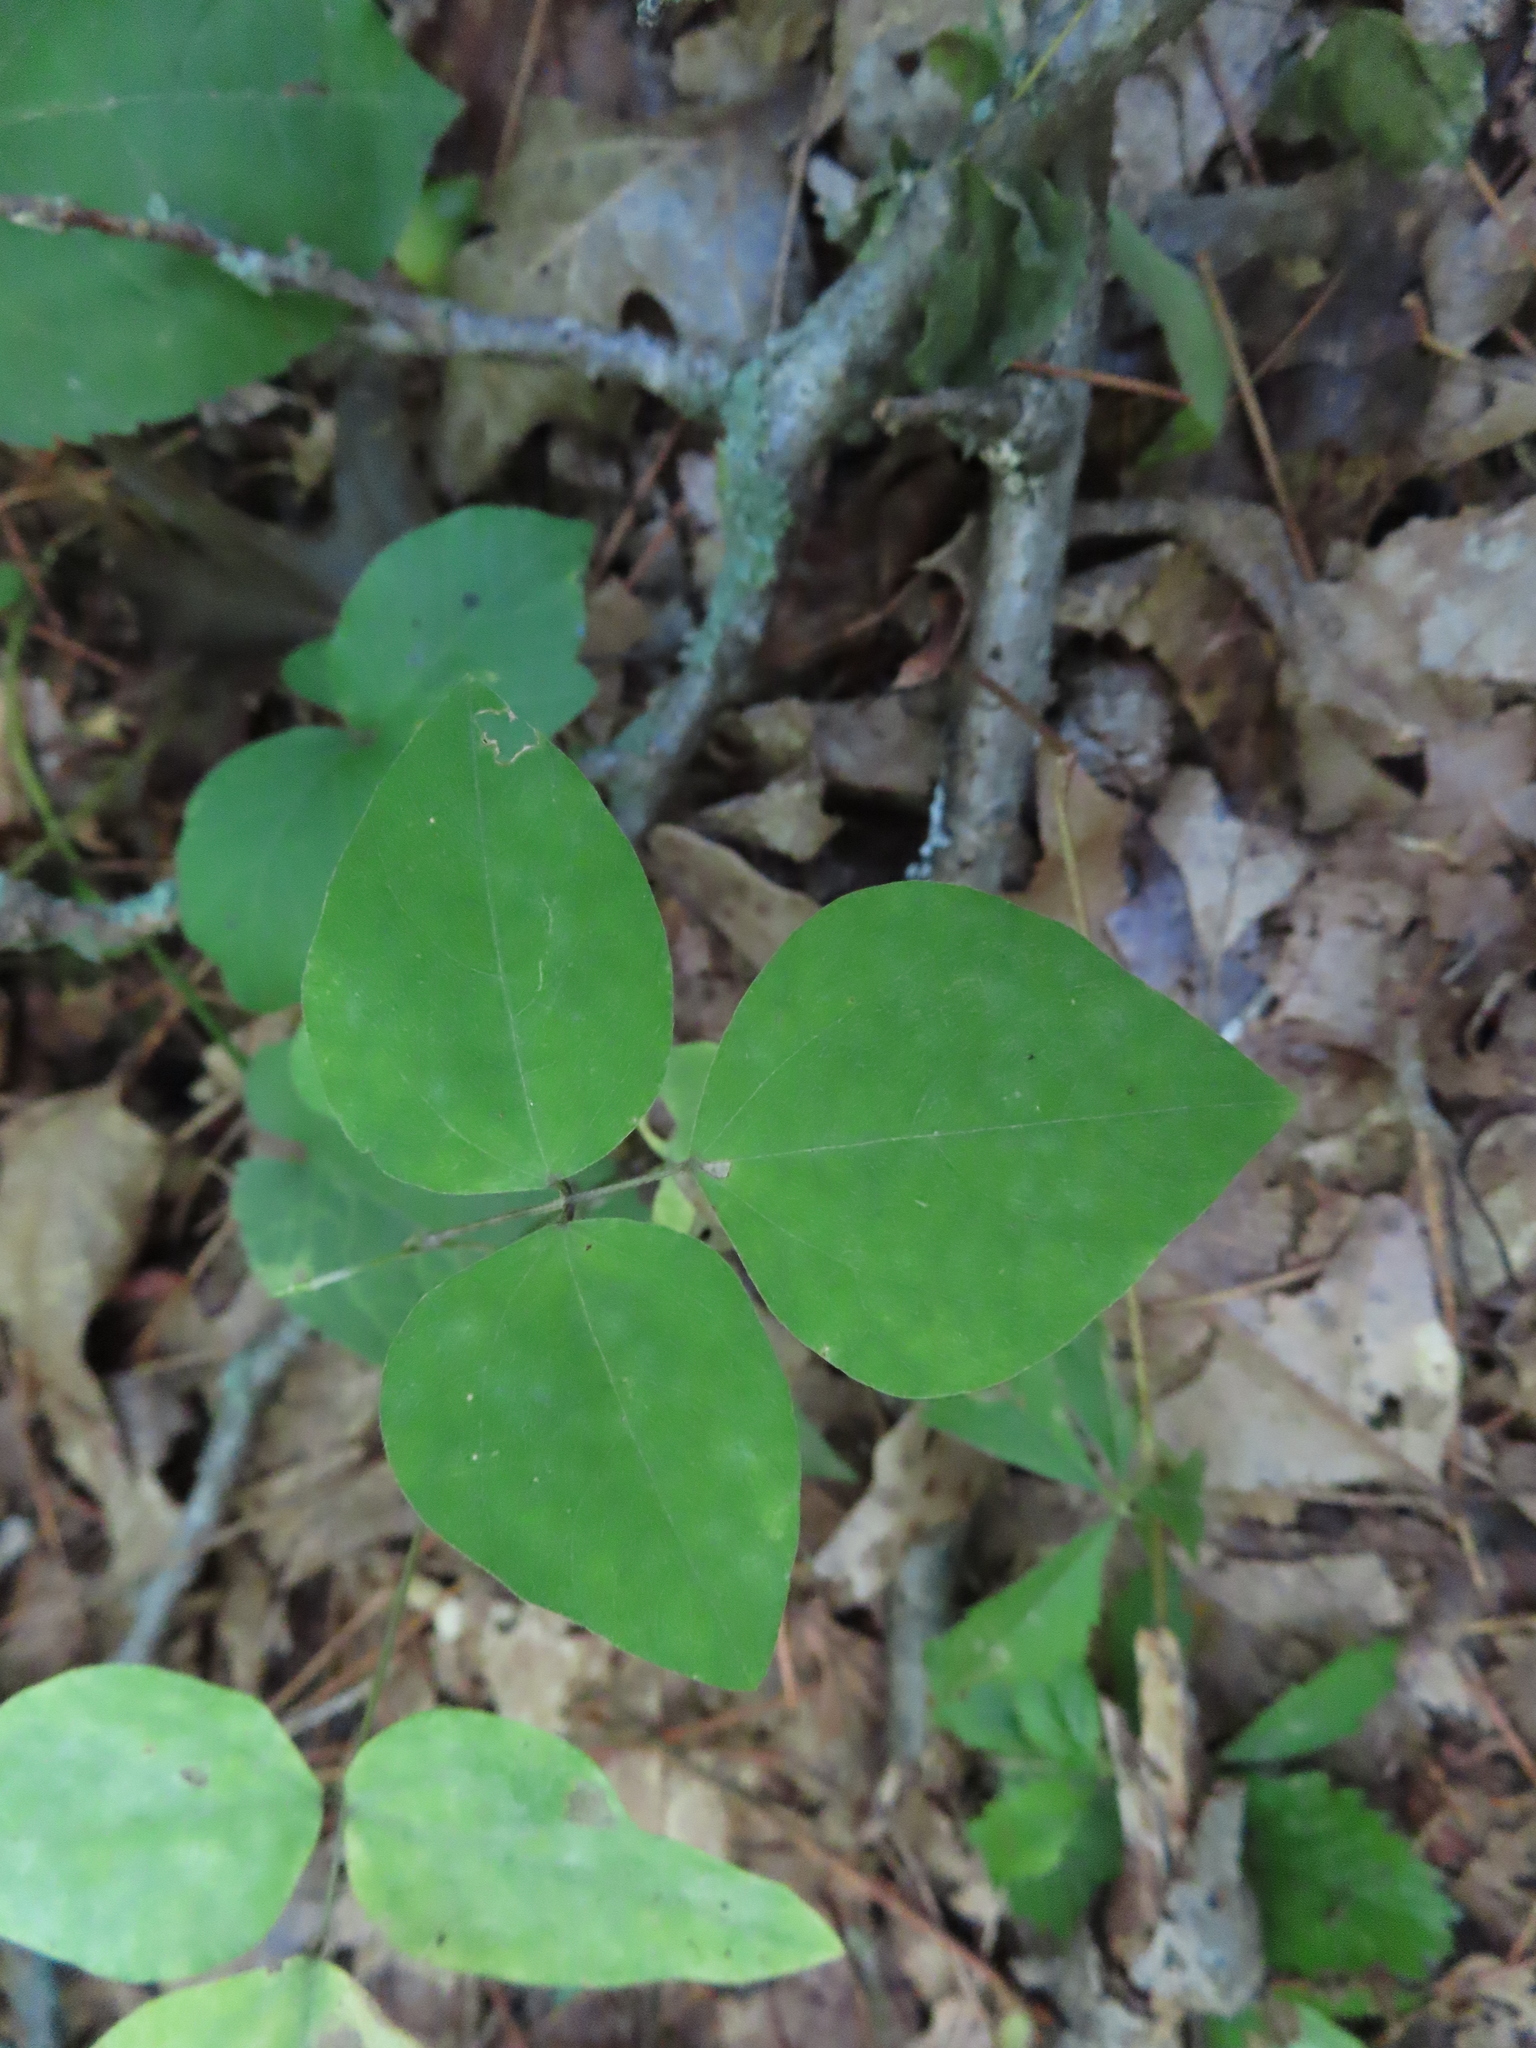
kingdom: Plantae
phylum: Tracheophyta
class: Magnoliopsida
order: Fabales
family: Fabaceae
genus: Amphicarpaea
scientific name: Amphicarpaea bracteata
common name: American hog peanut
